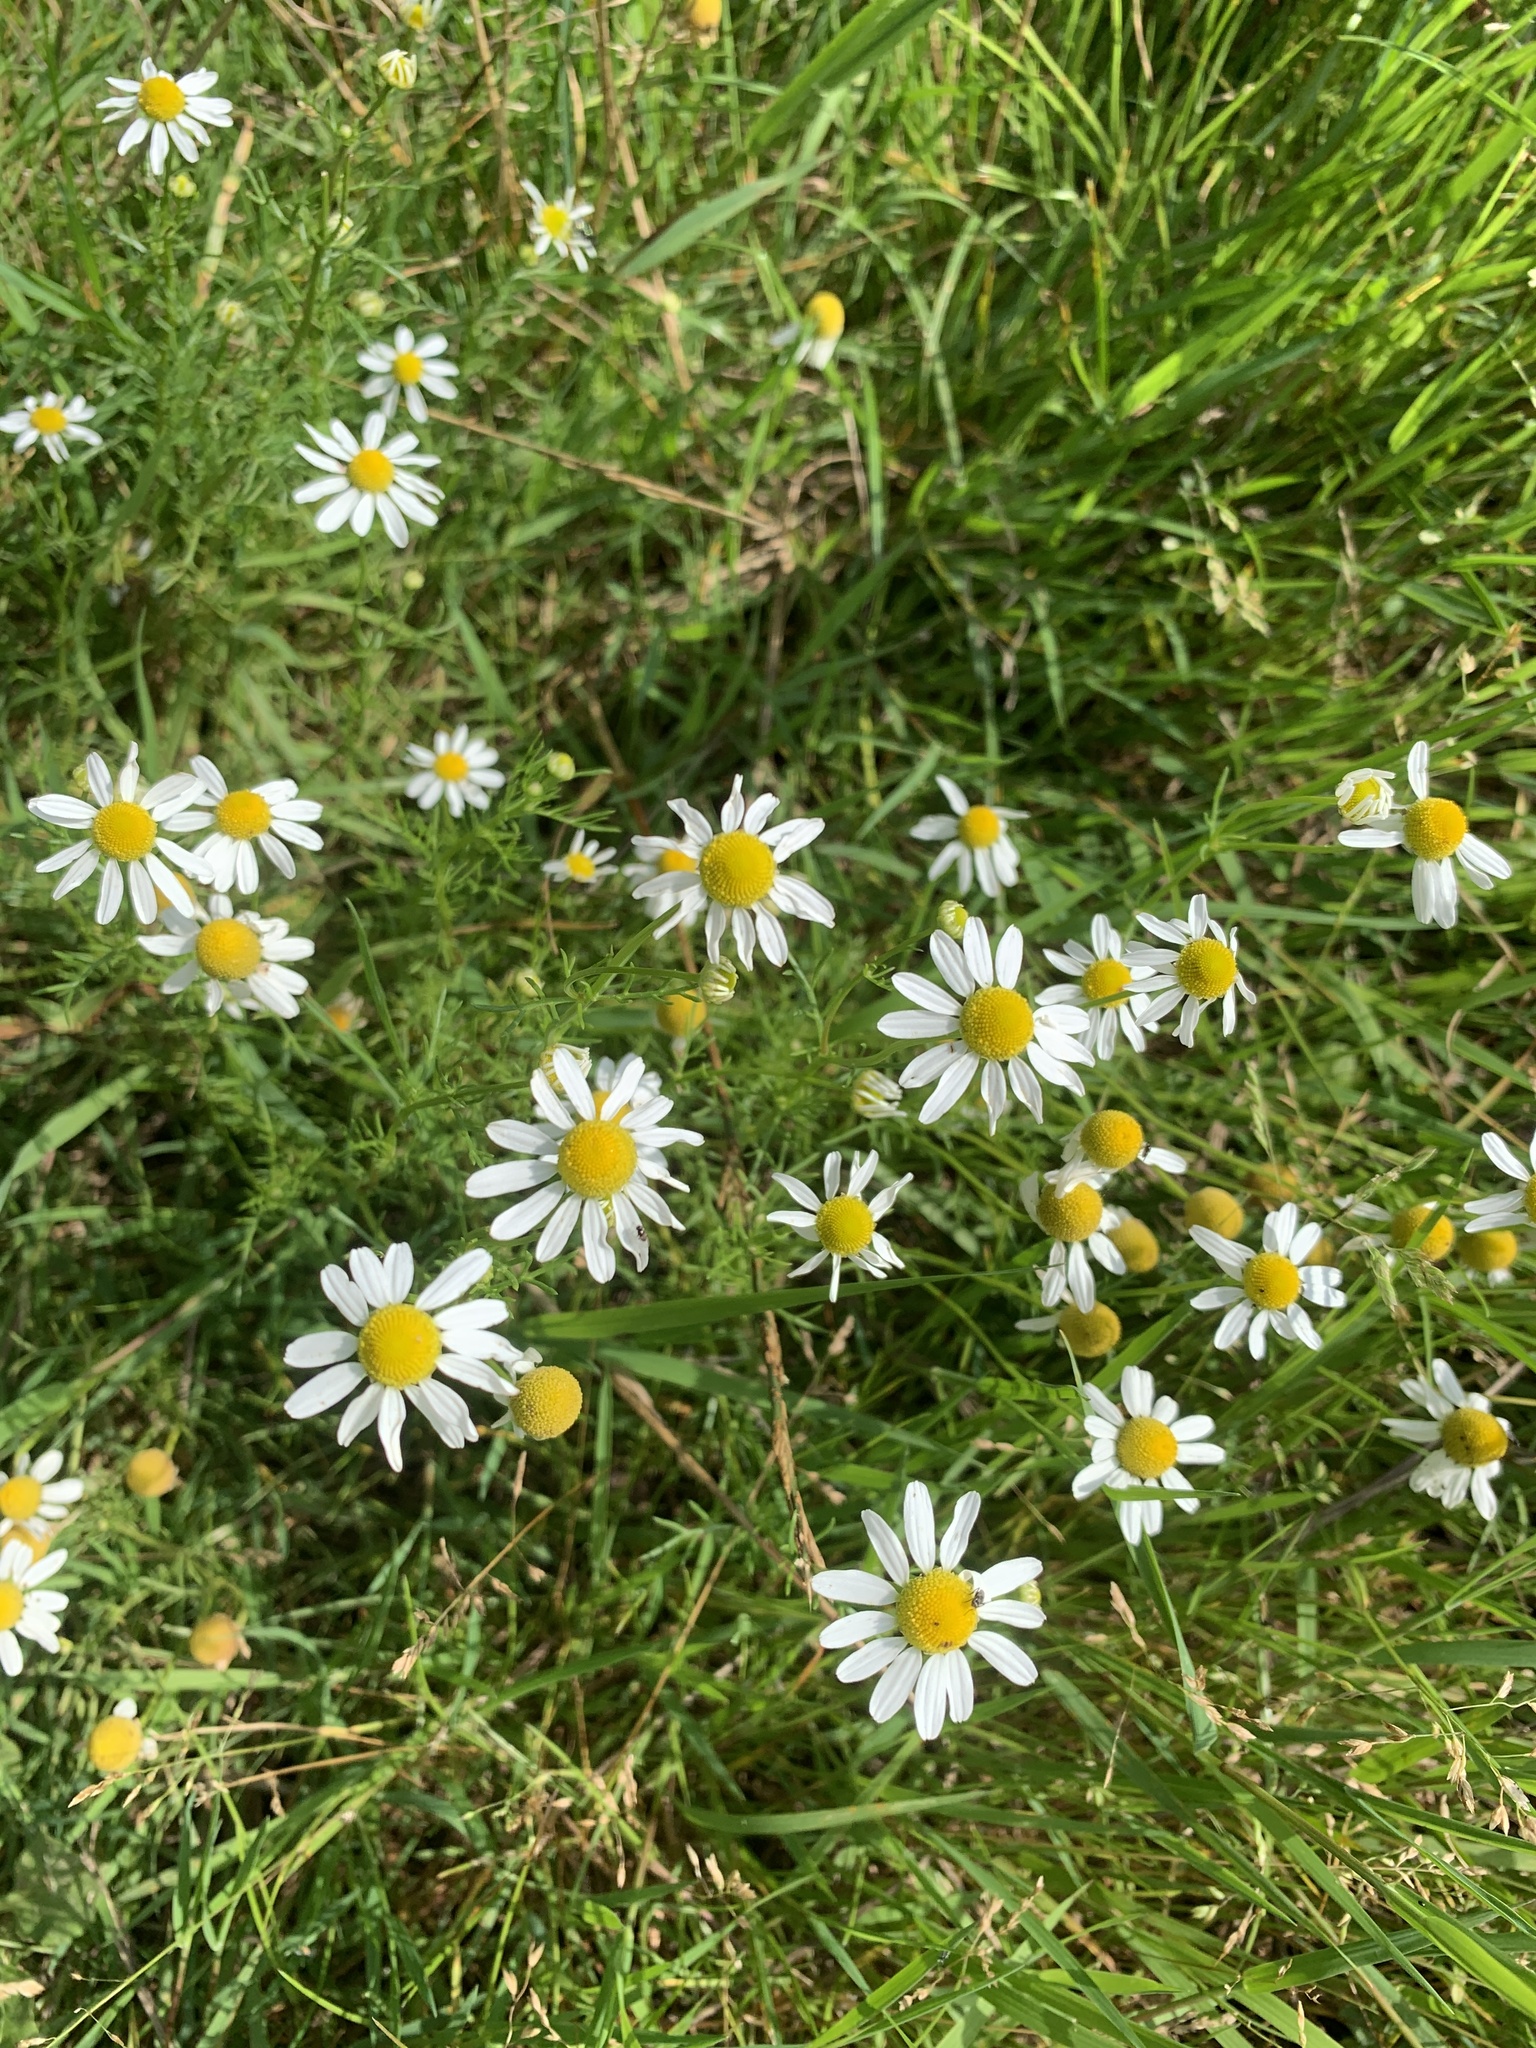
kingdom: Plantae
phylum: Tracheophyta
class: Magnoliopsida
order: Asterales
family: Asteraceae
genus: Matricaria
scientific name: Matricaria chamomilla
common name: Scented mayweed
